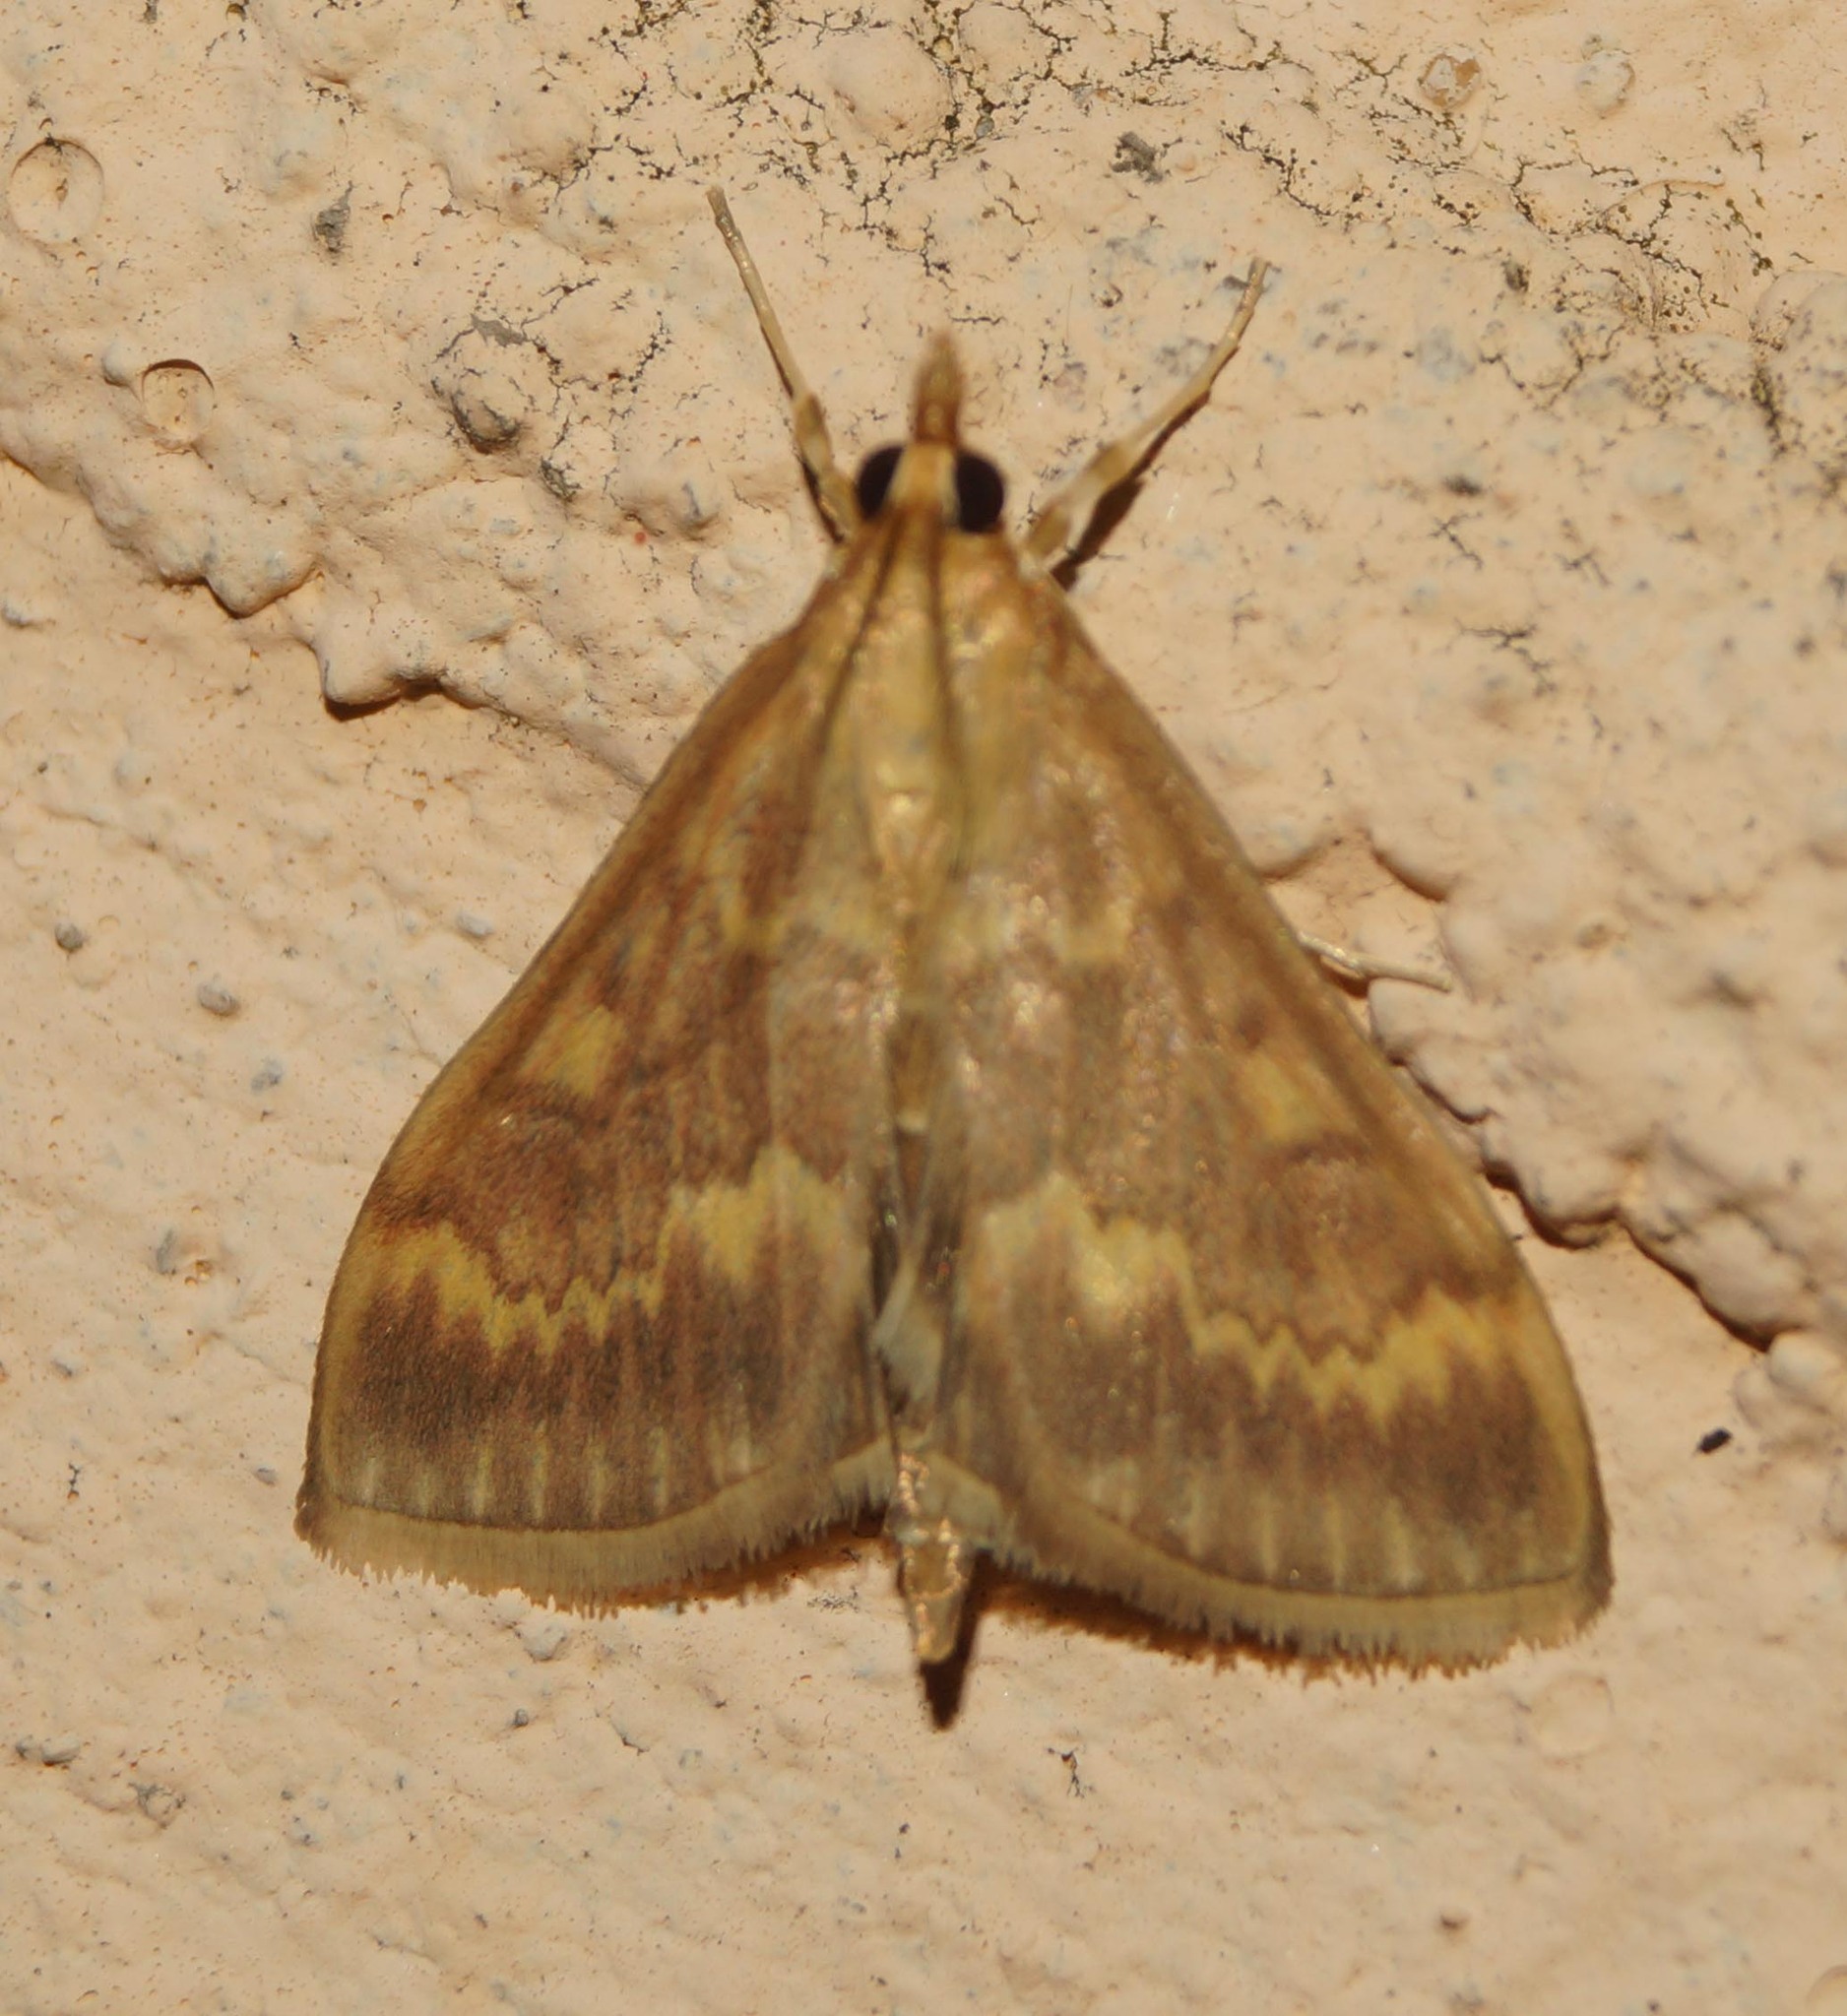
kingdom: Animalia
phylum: Arthropoda
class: Insecta
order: Lepidoptera
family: Crambidae
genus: Ostrinia
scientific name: Ostrinia nubilalis
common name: European corn borer
